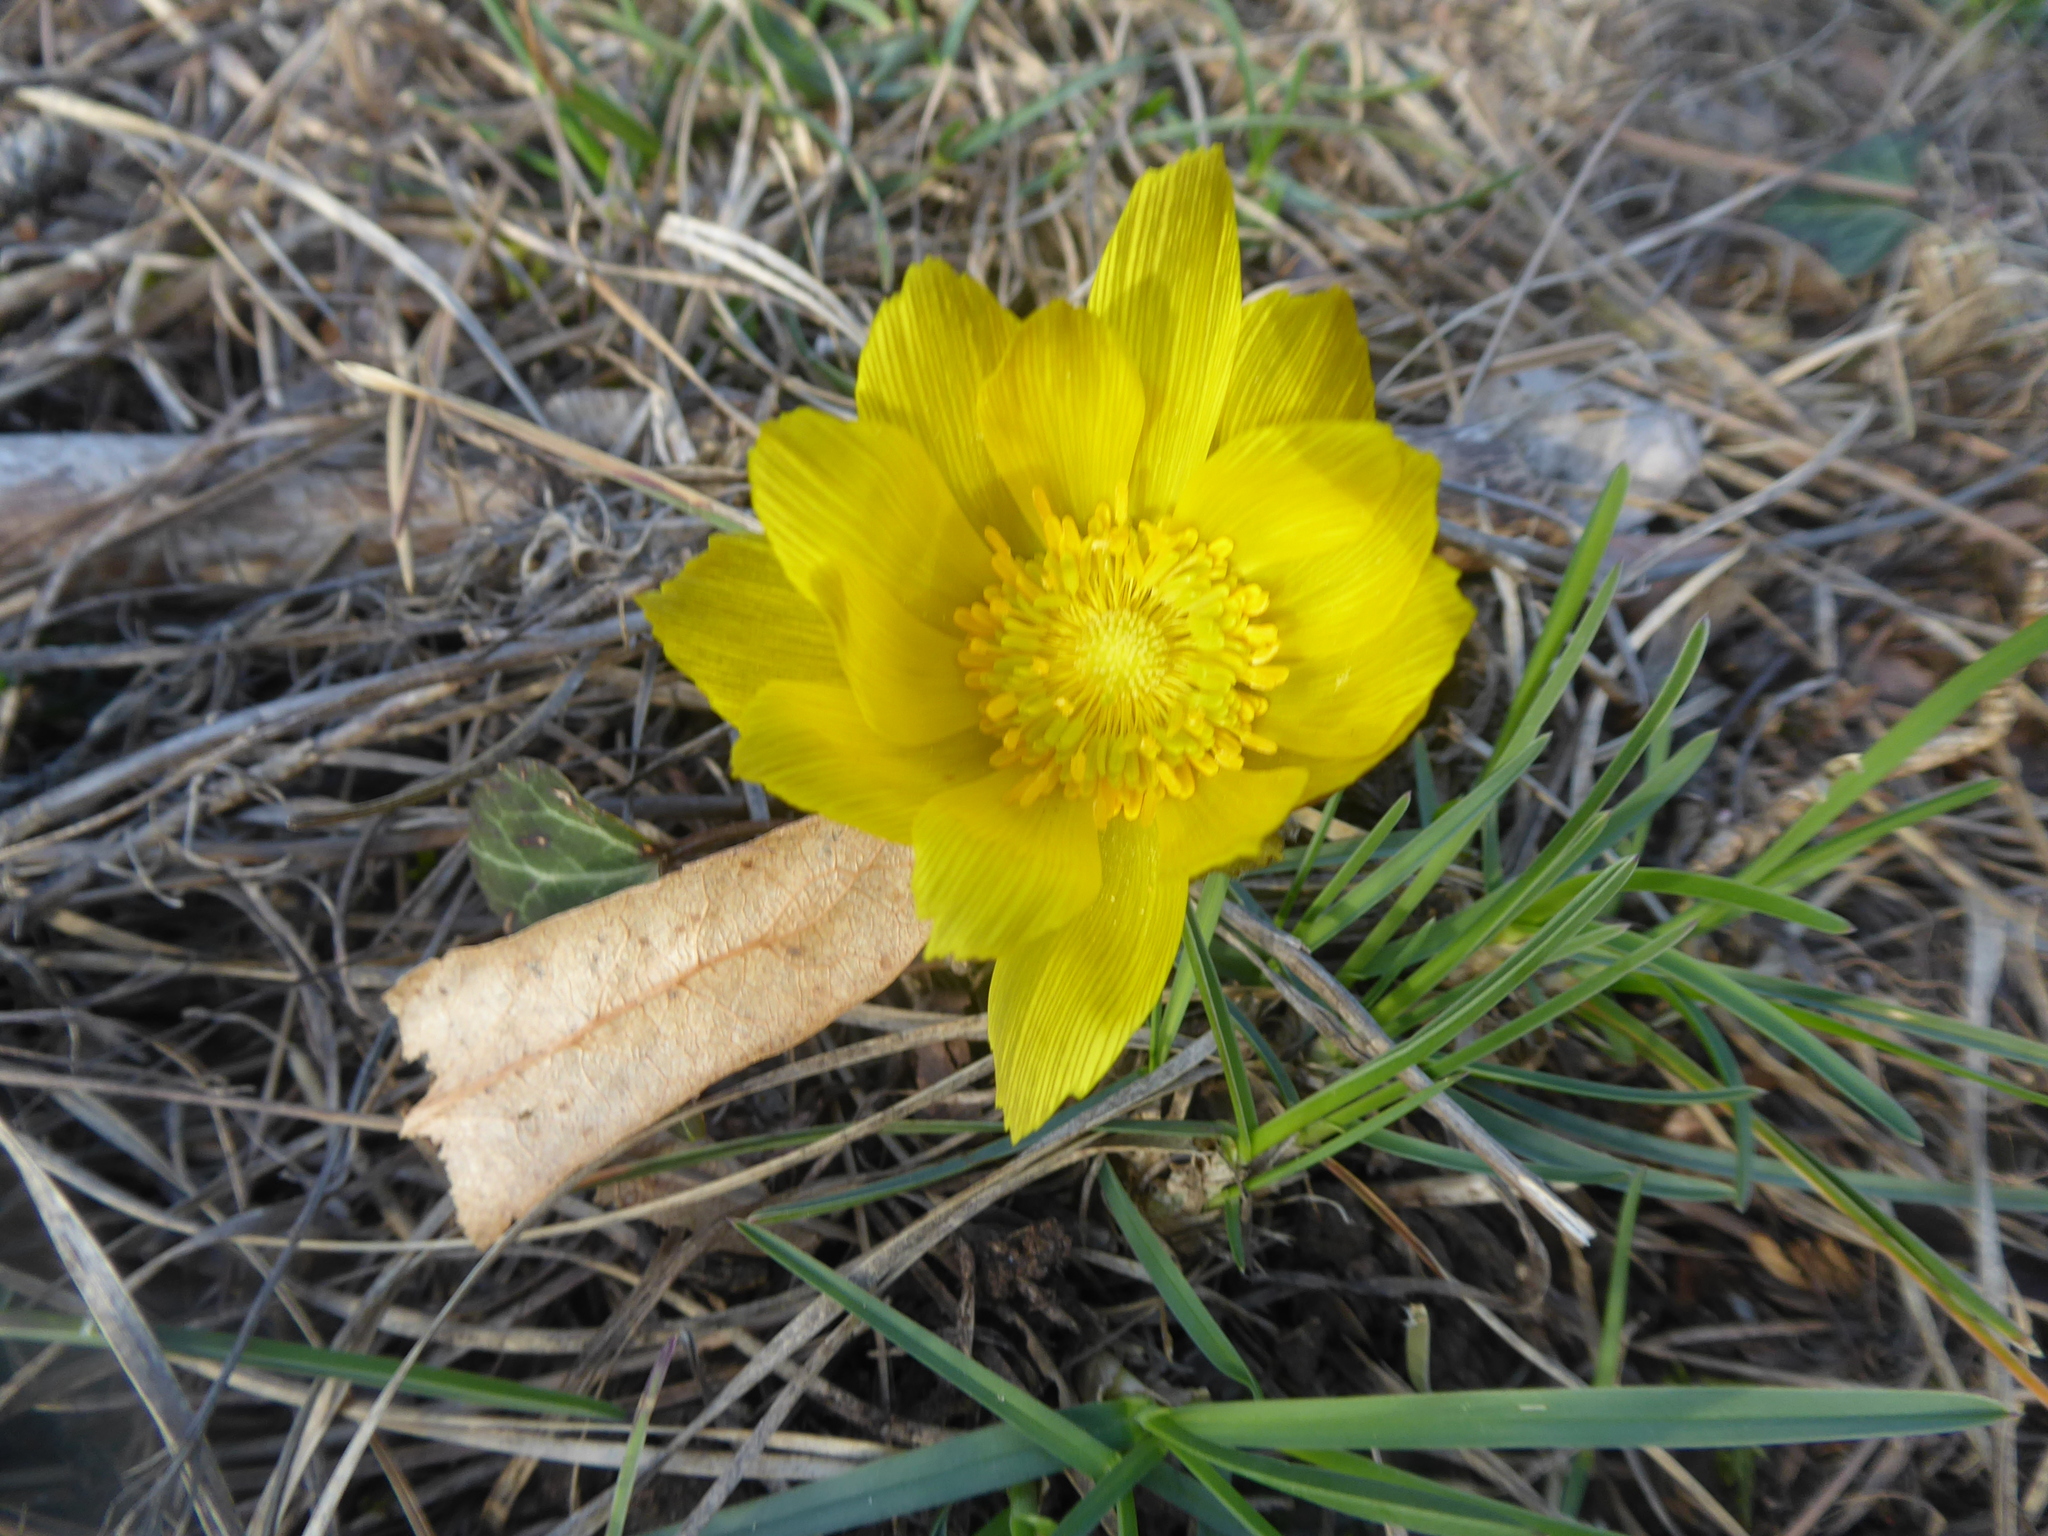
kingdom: Plantae
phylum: Tracheophyta
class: Magnoliopsida
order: Ranunculales
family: Ranunculaceae
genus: Adonis
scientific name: Adonis vernalis
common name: Yellow pheasants-eye
